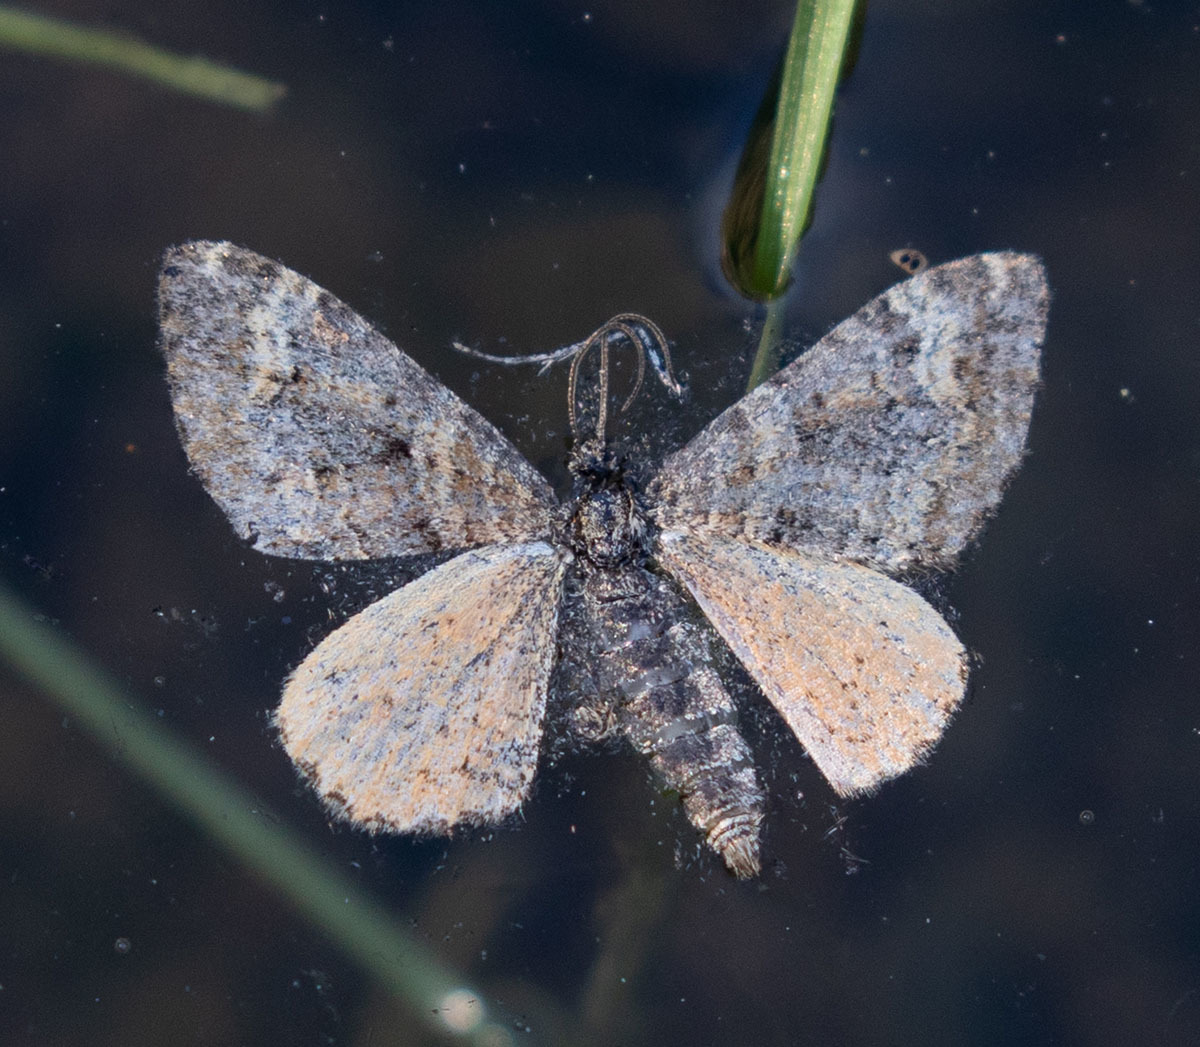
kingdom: Animalia
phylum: Arthropoda
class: Insecta
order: Lepidoptera
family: Geometridae
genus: Epirrhoe
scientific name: Epirrhoe plebeculata
